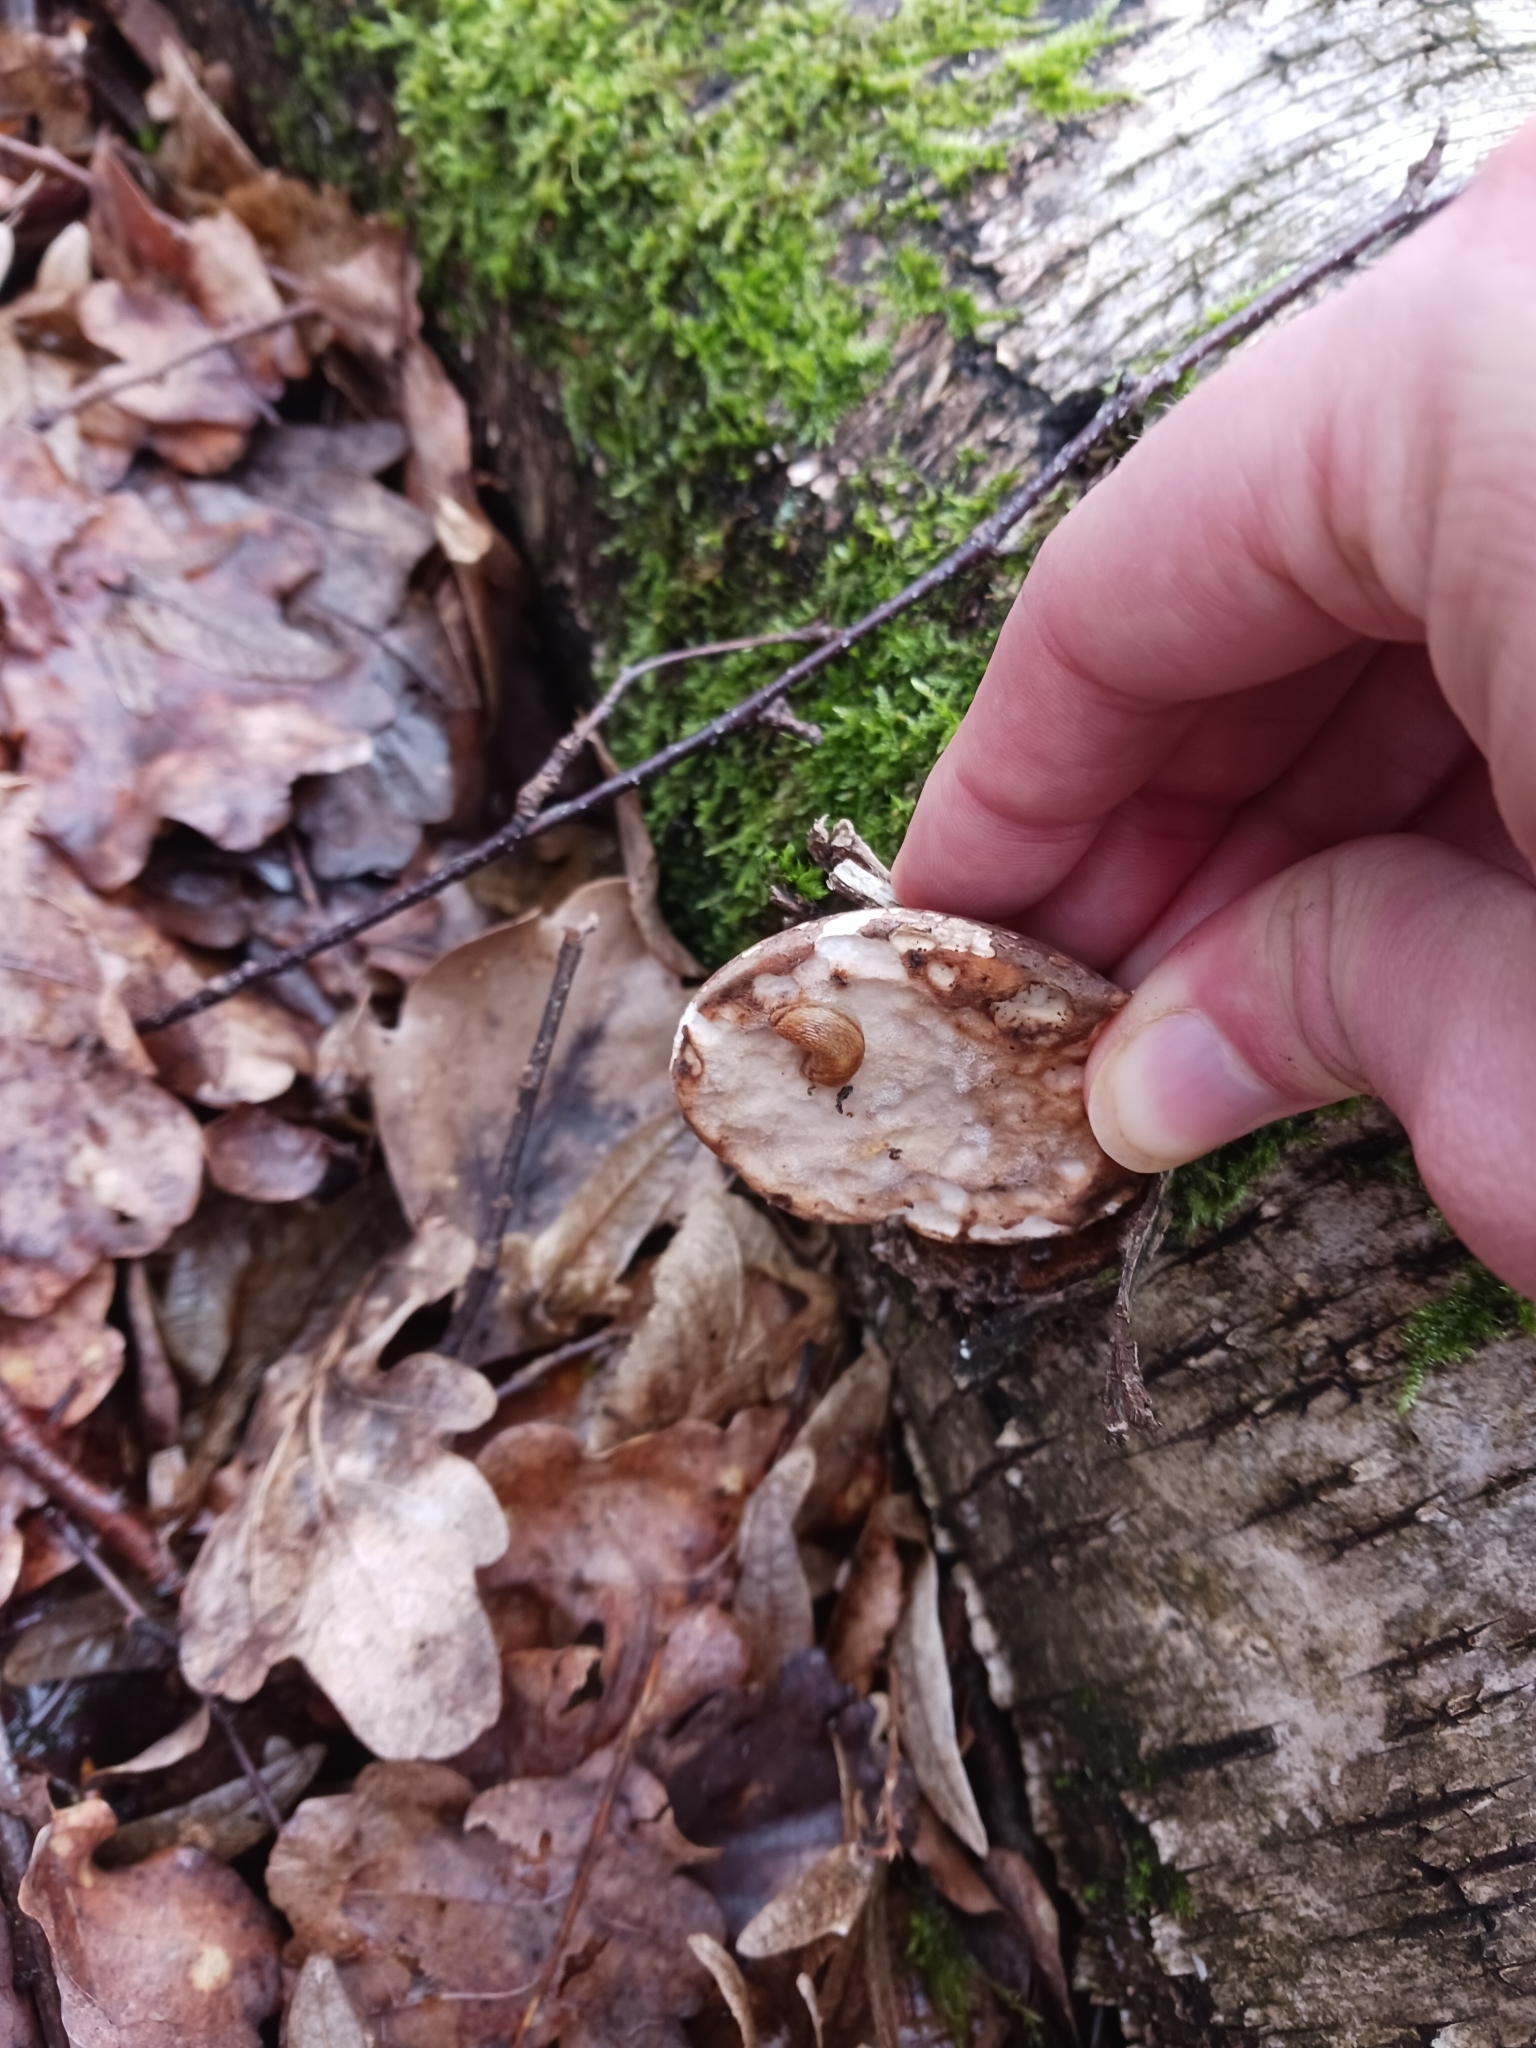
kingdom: Fungi
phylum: Basidiomycota
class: Agaricomycetes
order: Polyporales
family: Fomitopsidaceae
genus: Fomitopsis
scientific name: Fomitopsis betulina
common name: Birch polypore
